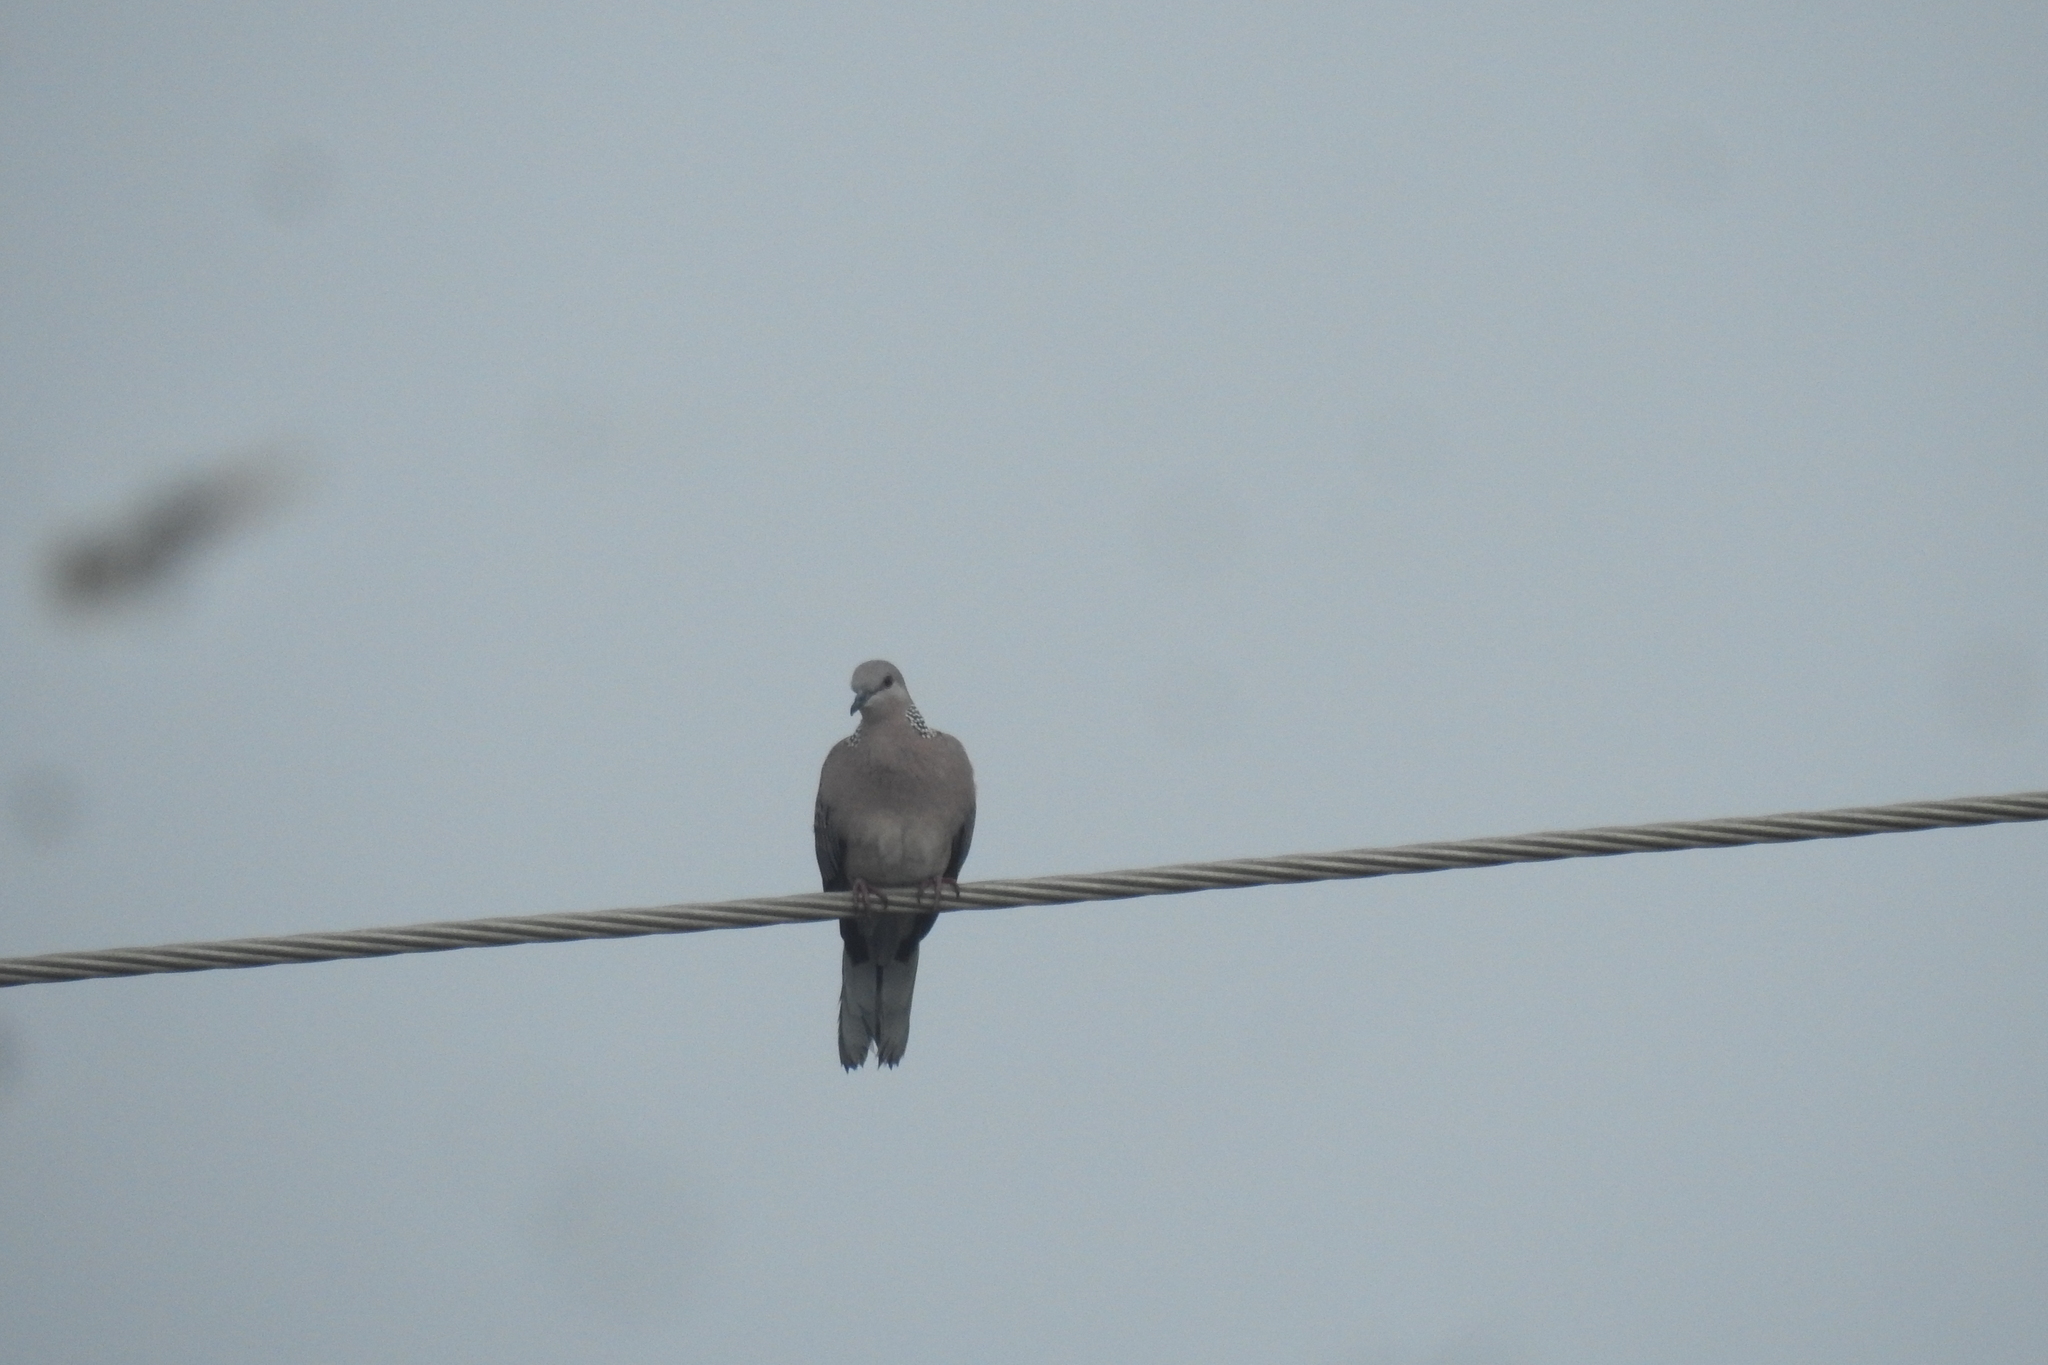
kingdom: Animalia
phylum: Chordata
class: Aves
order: Columbiformes
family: Columbidae
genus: Spilopelia
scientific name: Spilopelia chinensis
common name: Spotted dove
